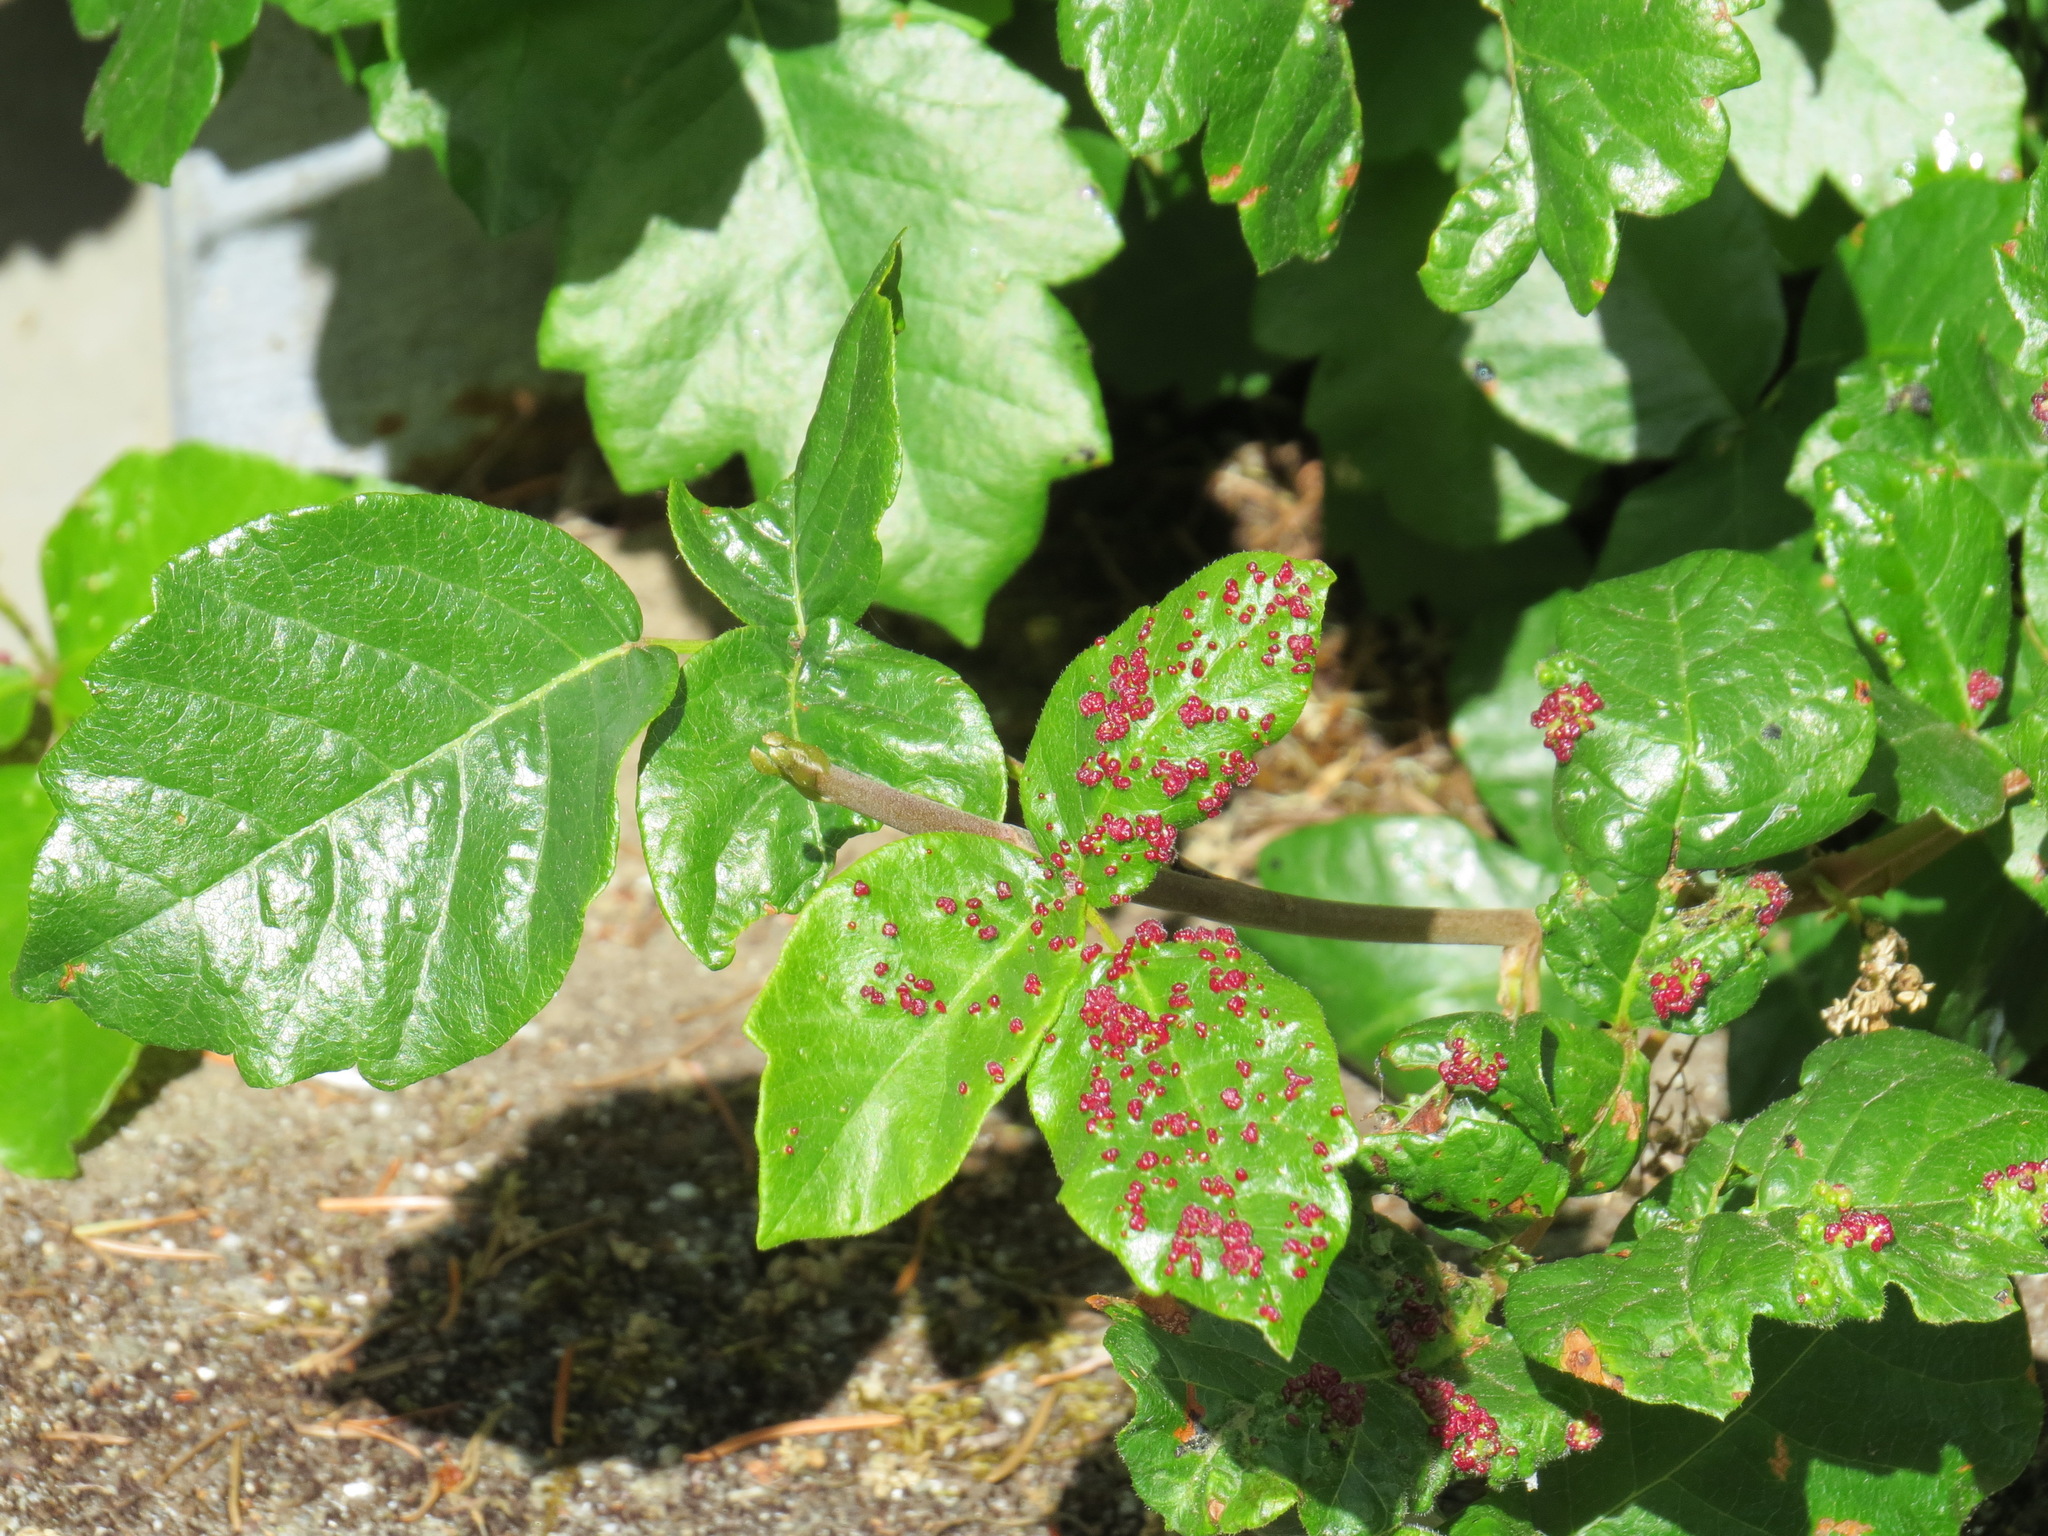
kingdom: Animalia
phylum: Arthropoda
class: Arachnida
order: Trombidiformes
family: Eriophyidae
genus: Aculops
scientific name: Aculops
